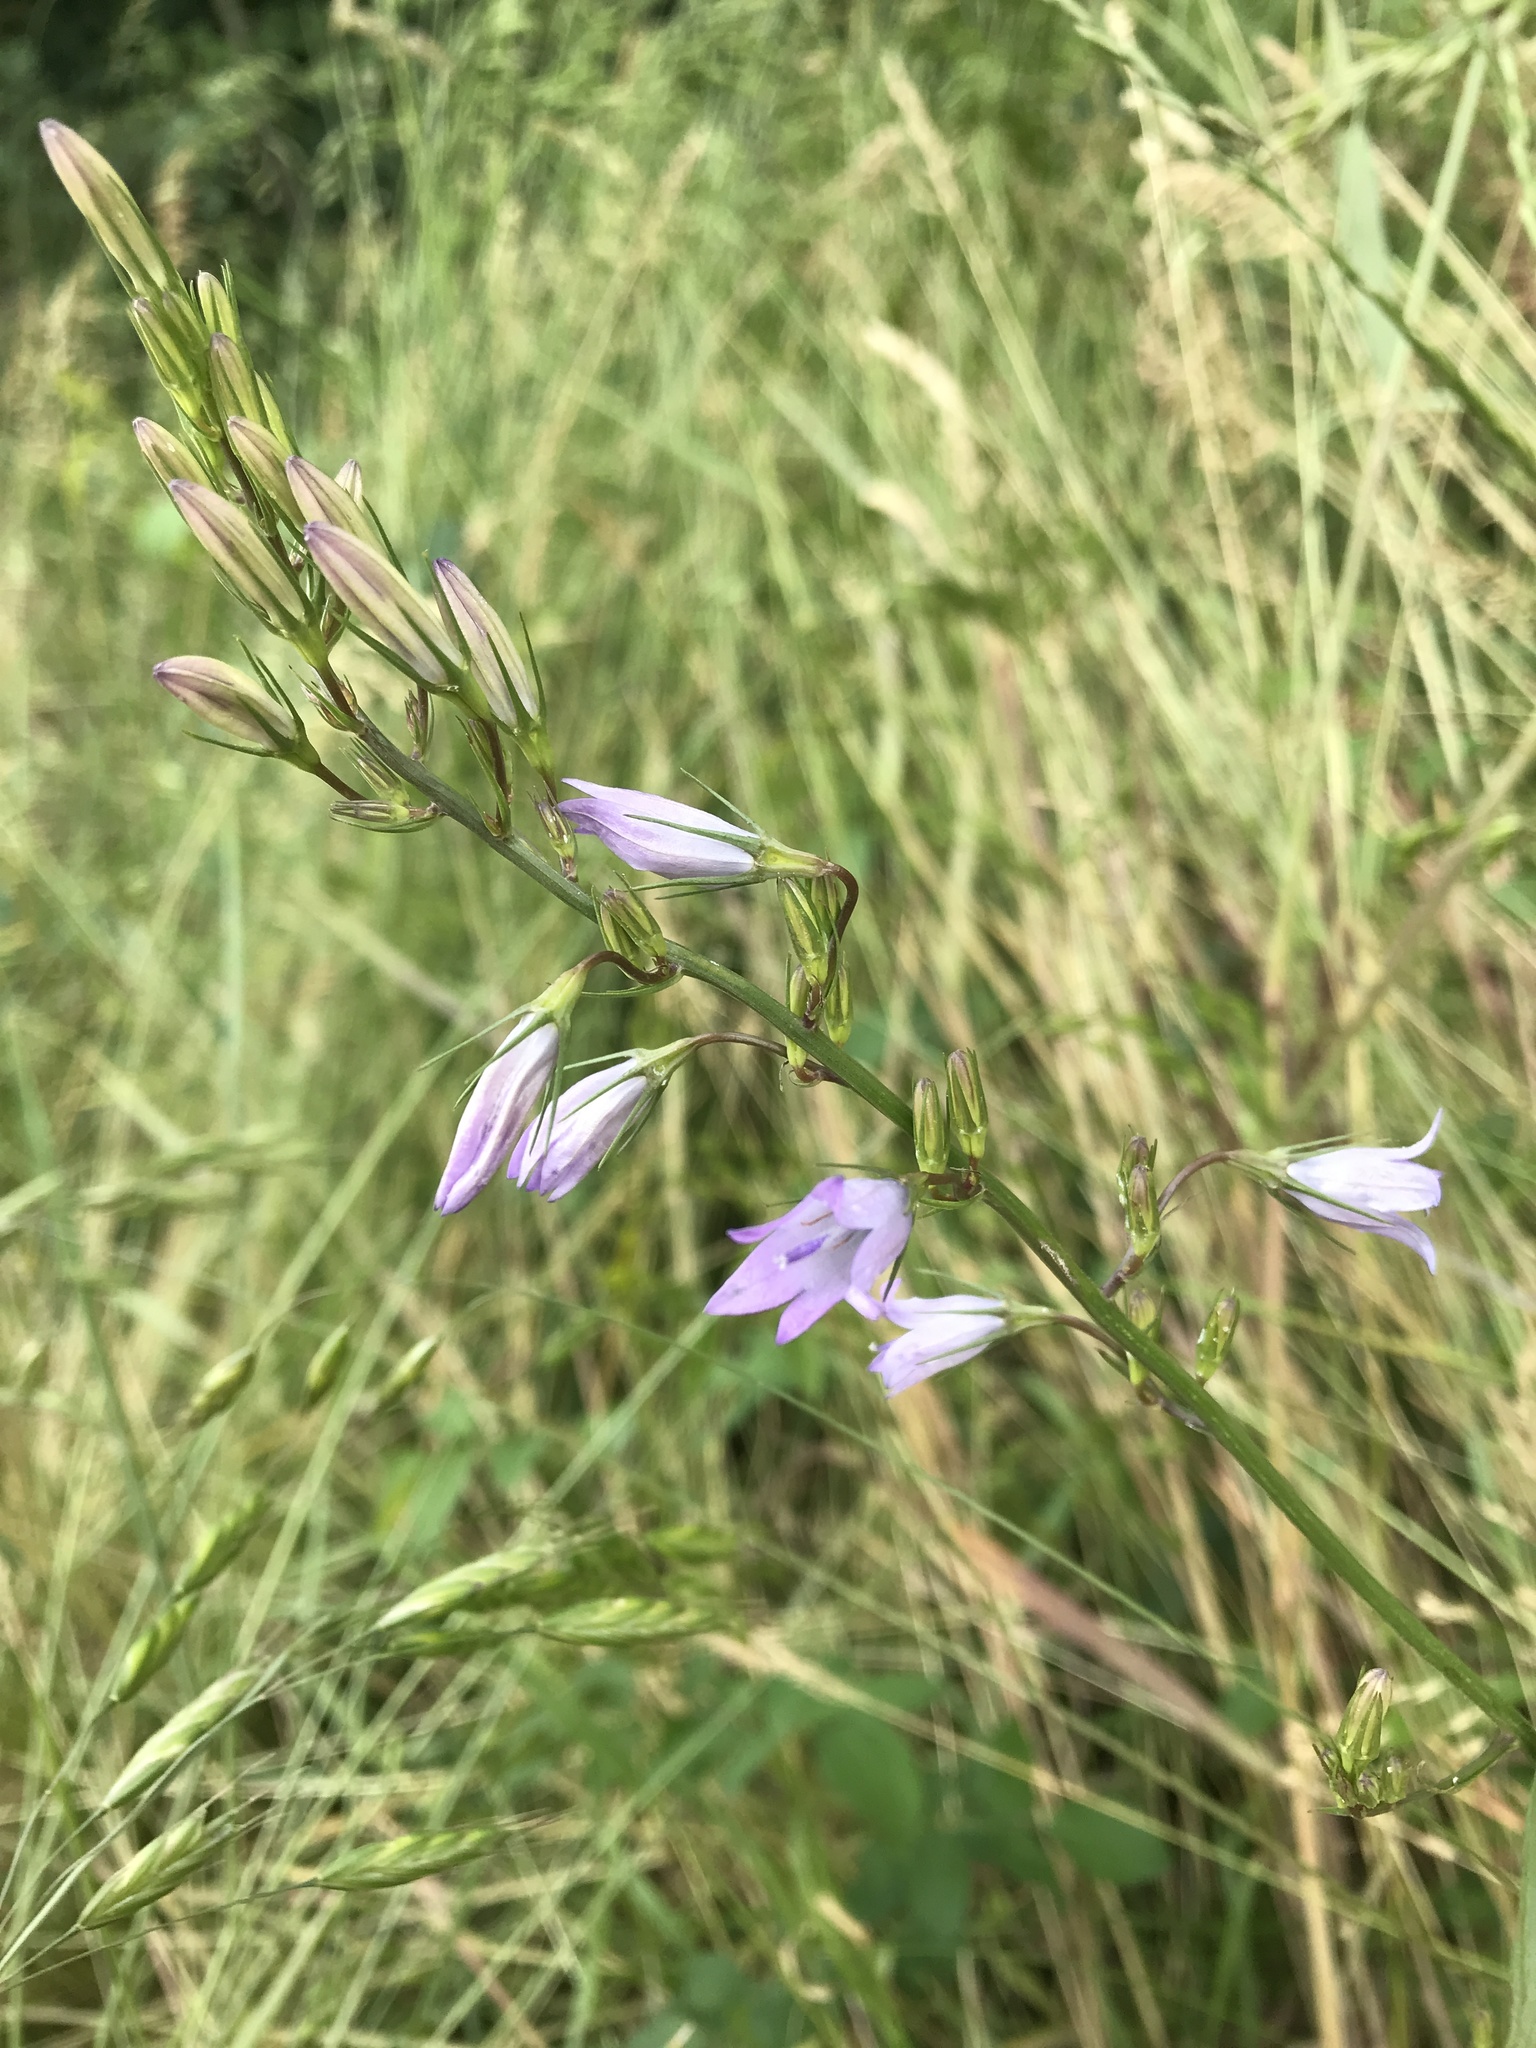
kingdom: Plantae
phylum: Tracheophyta
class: Magnoliopsida
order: Asterales
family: Campanulaceae
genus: Campanula
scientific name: Campanula rapunculus
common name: Rampion bellflower
